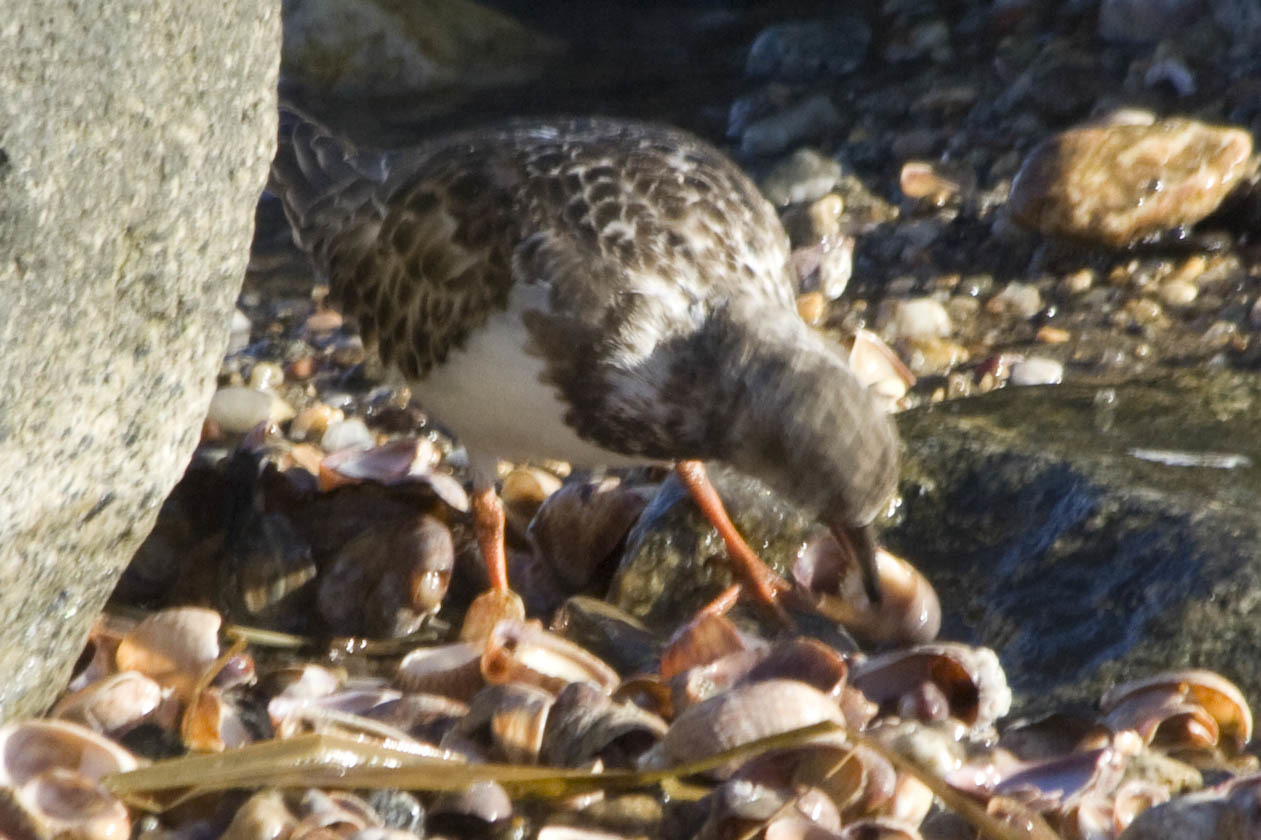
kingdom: Animalia
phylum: Chordata
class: Aves
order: Charadriiformes
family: Scolopacidae
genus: Arenaria
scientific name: Arenaria interpres
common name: Ruddy turnstone
